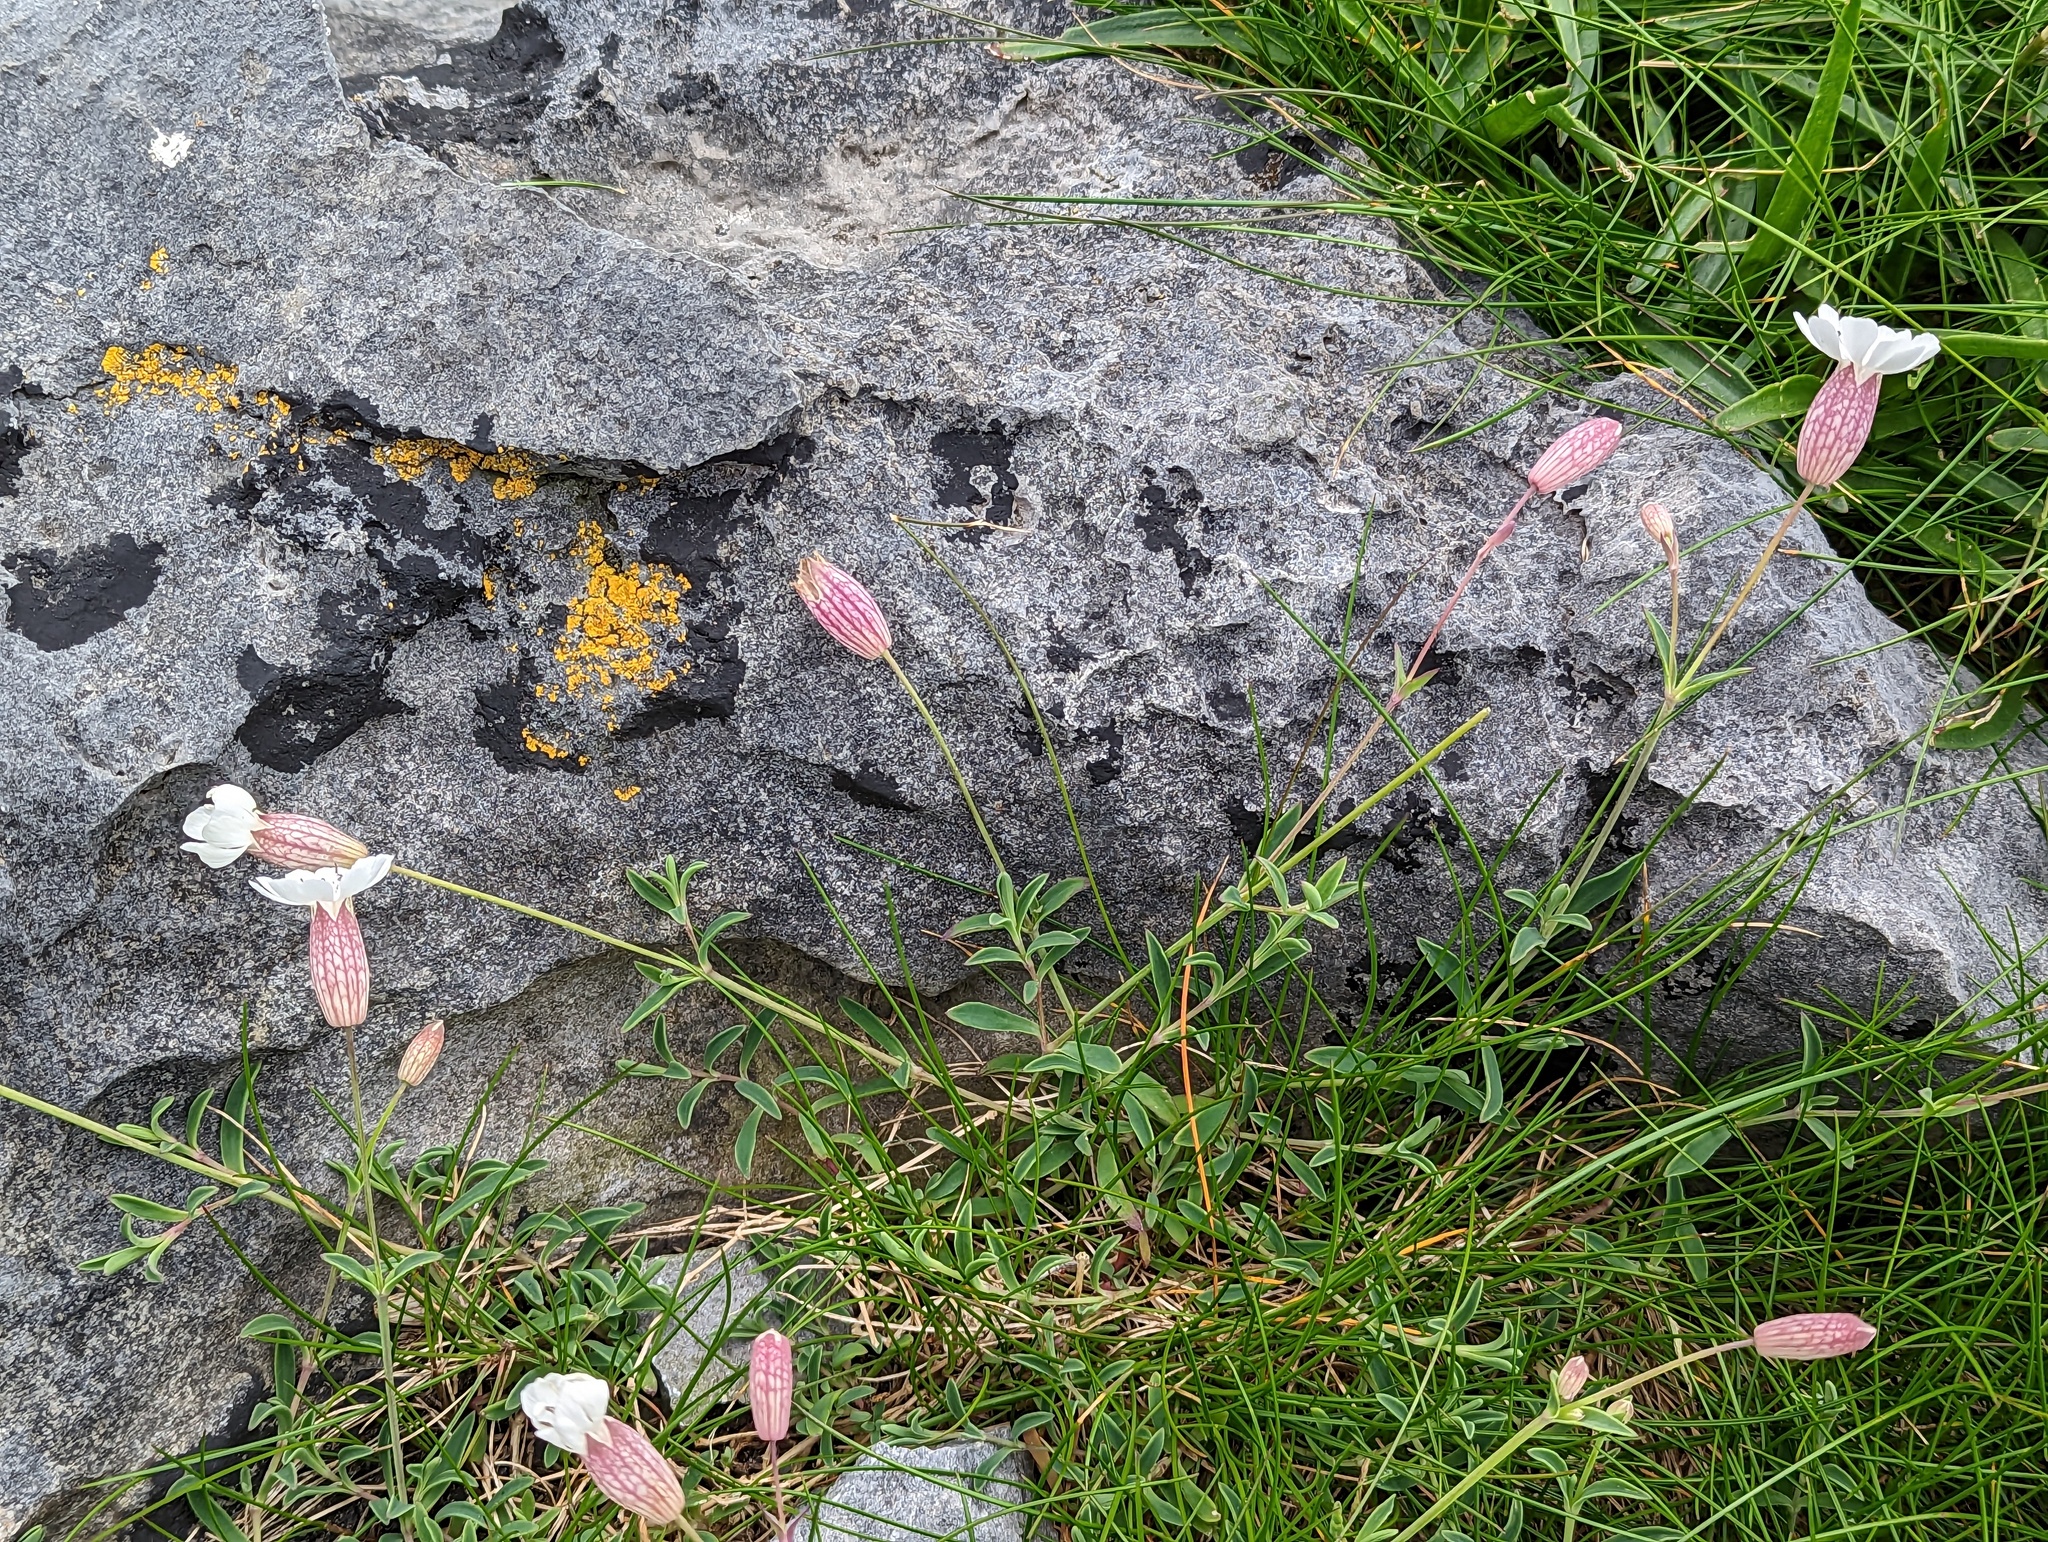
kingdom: Plantae
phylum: Tracheophyta
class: Magnoliopsida
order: Caryophyllales
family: Caryophyllaceae
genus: Silene
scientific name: Silene uniflora
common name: Sea campion
